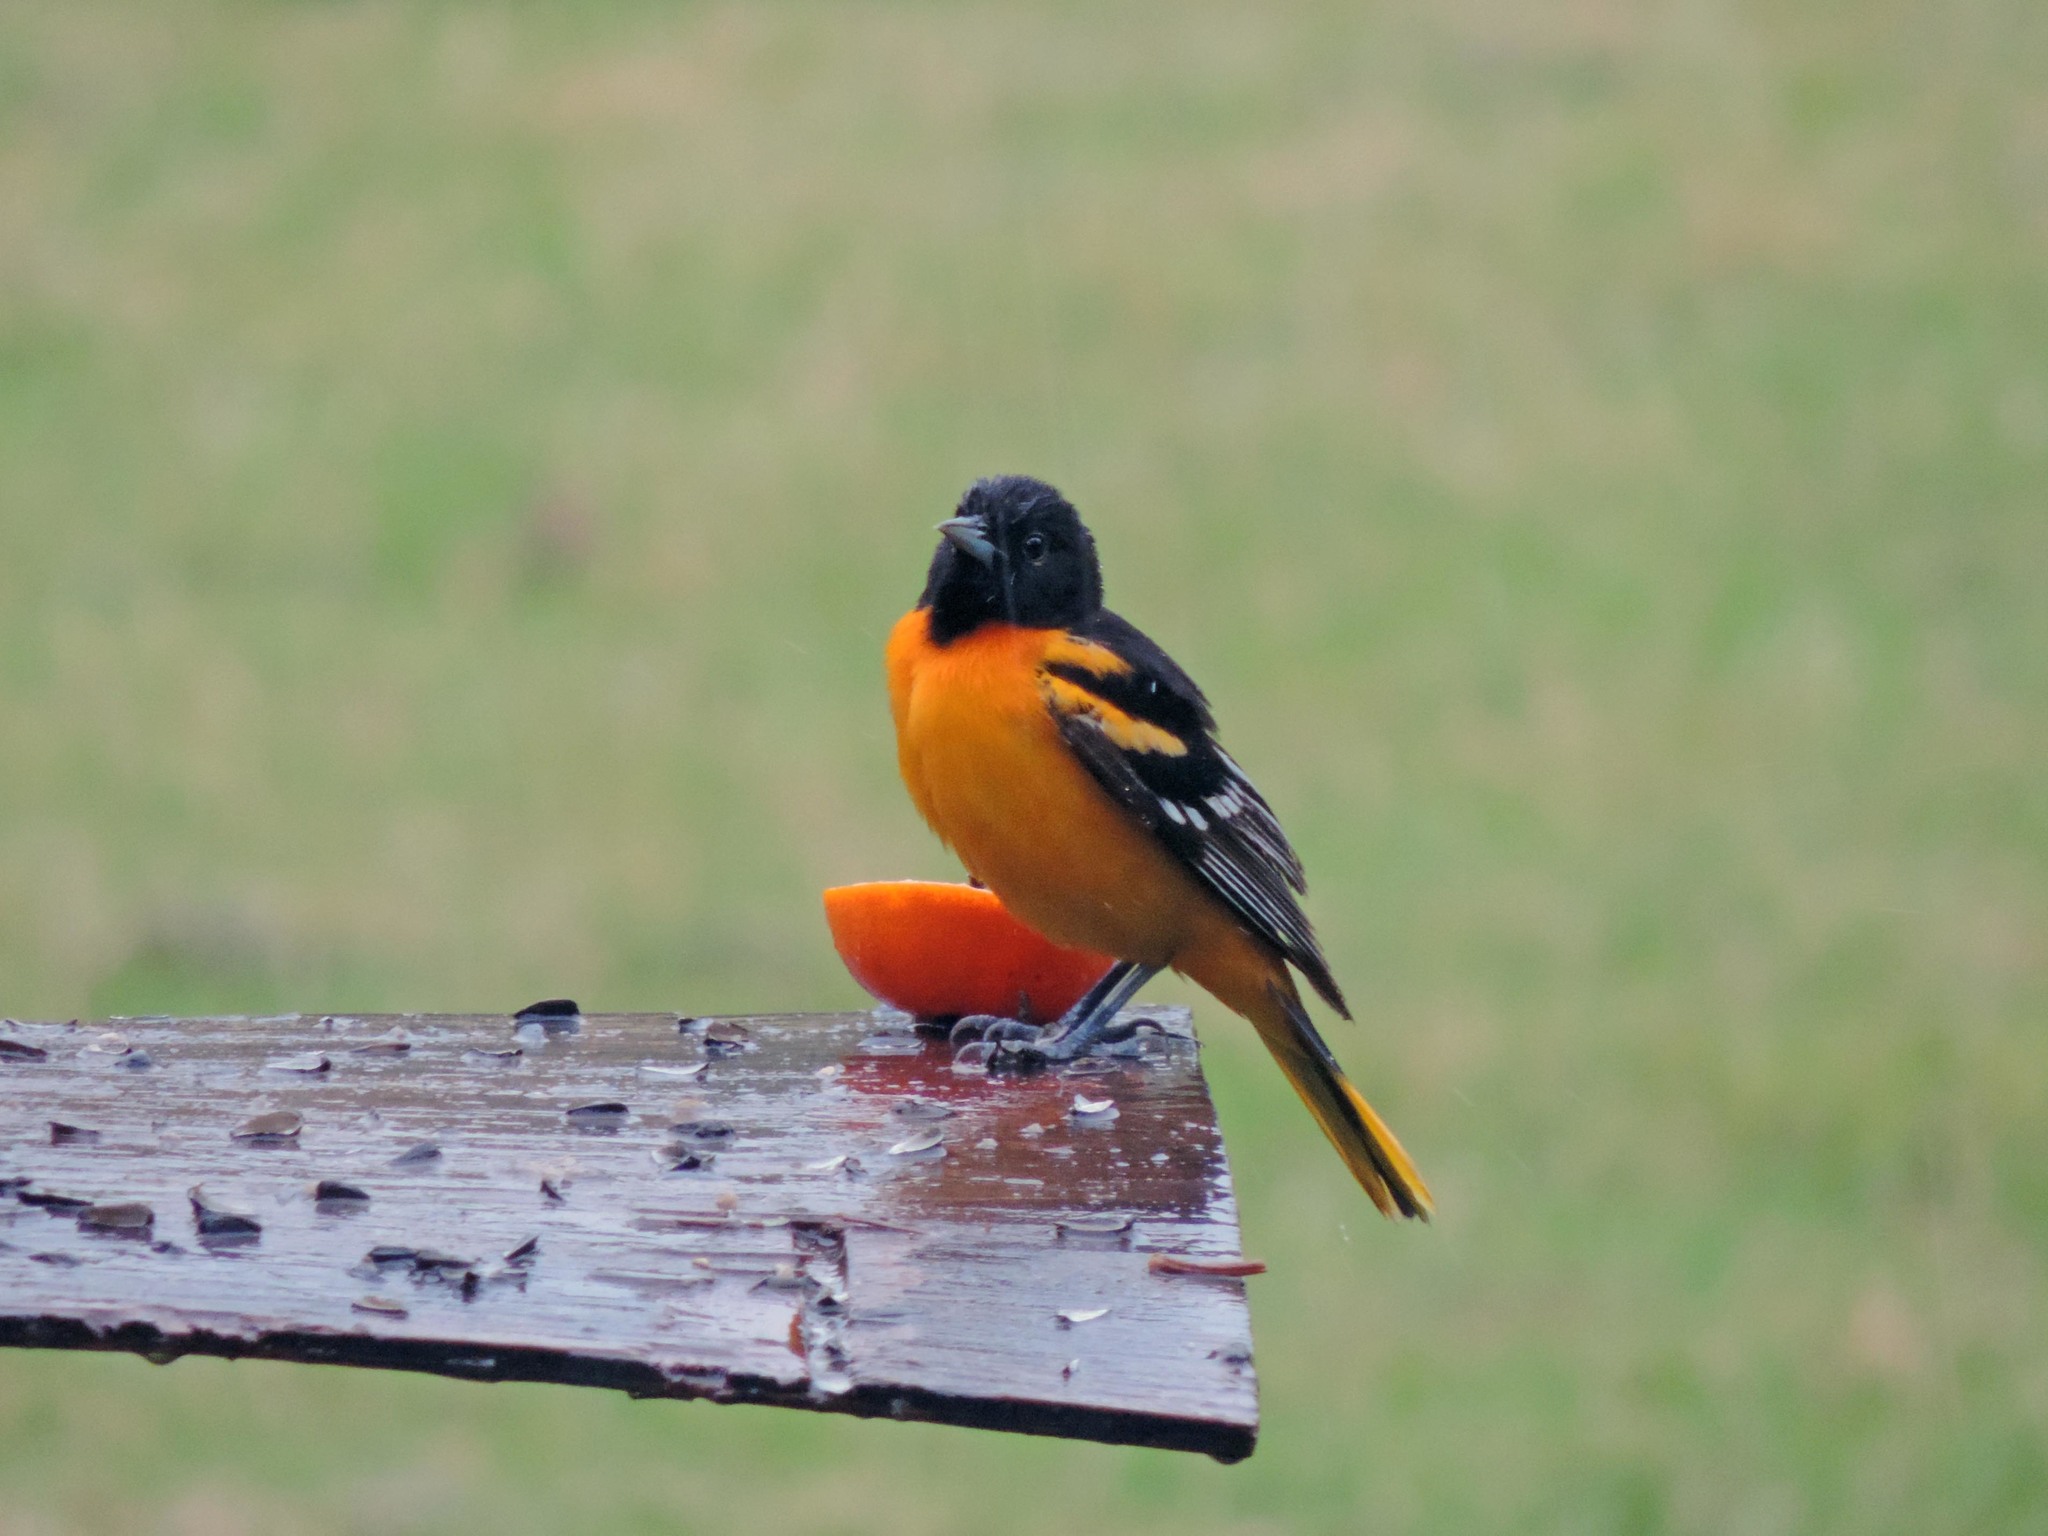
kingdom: Animalia
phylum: Chordata
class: Aves
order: Passeriformes
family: Icteridae
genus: Icterus
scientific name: Icterus galbula
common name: Baltimore oriole
